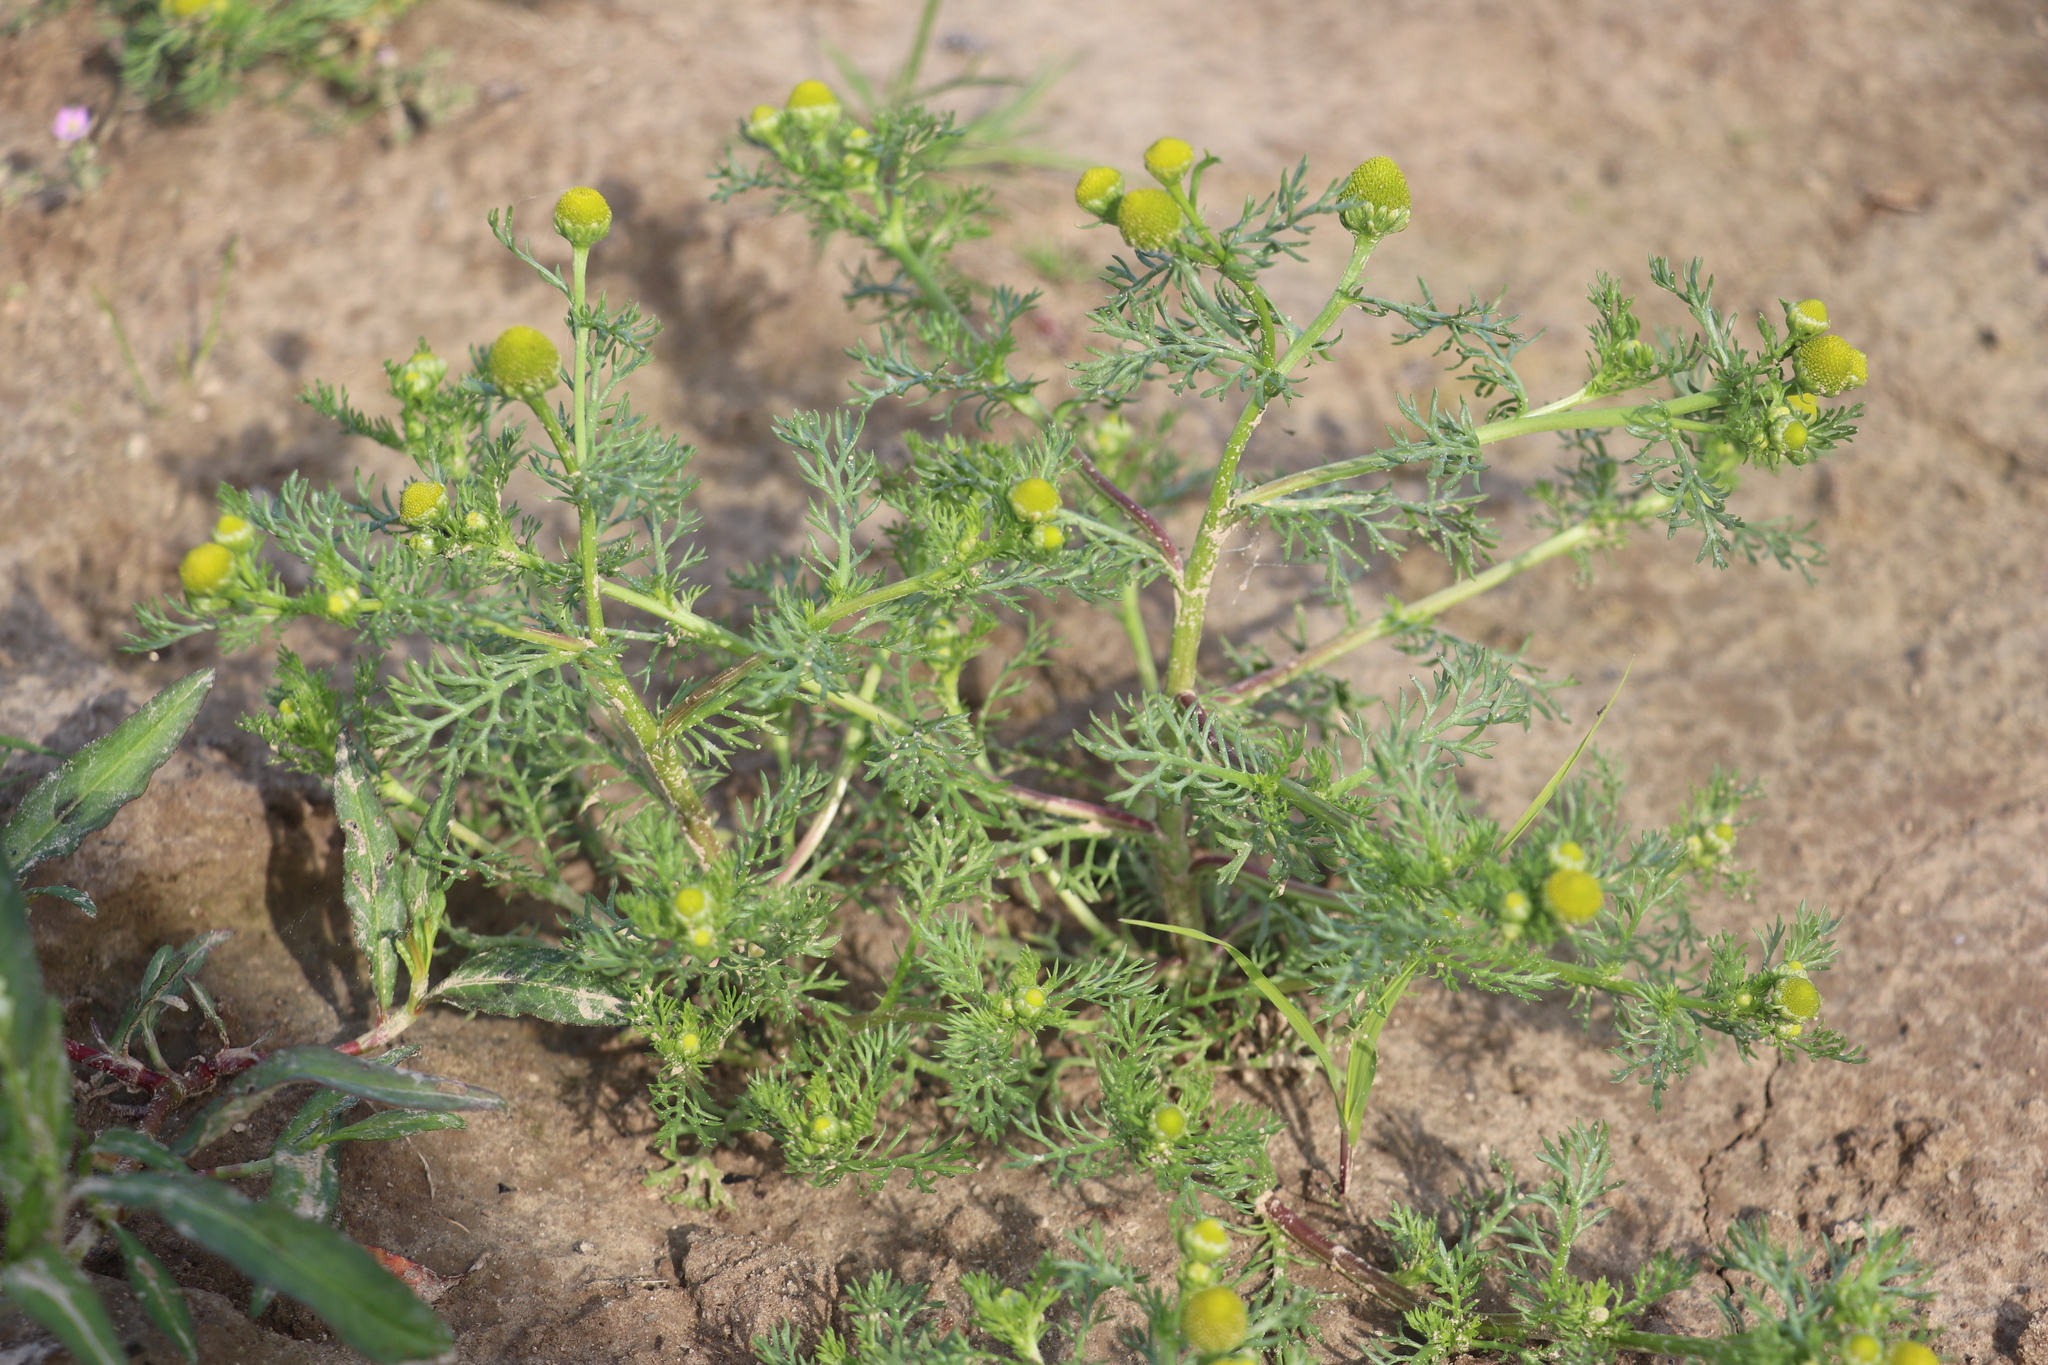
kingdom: Plantae
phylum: Tracheophyta
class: Magnoliopsida
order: Asterales
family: Asteraceae
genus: Matricaria
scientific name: Matricaria discoidea
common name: Disc mayweed
